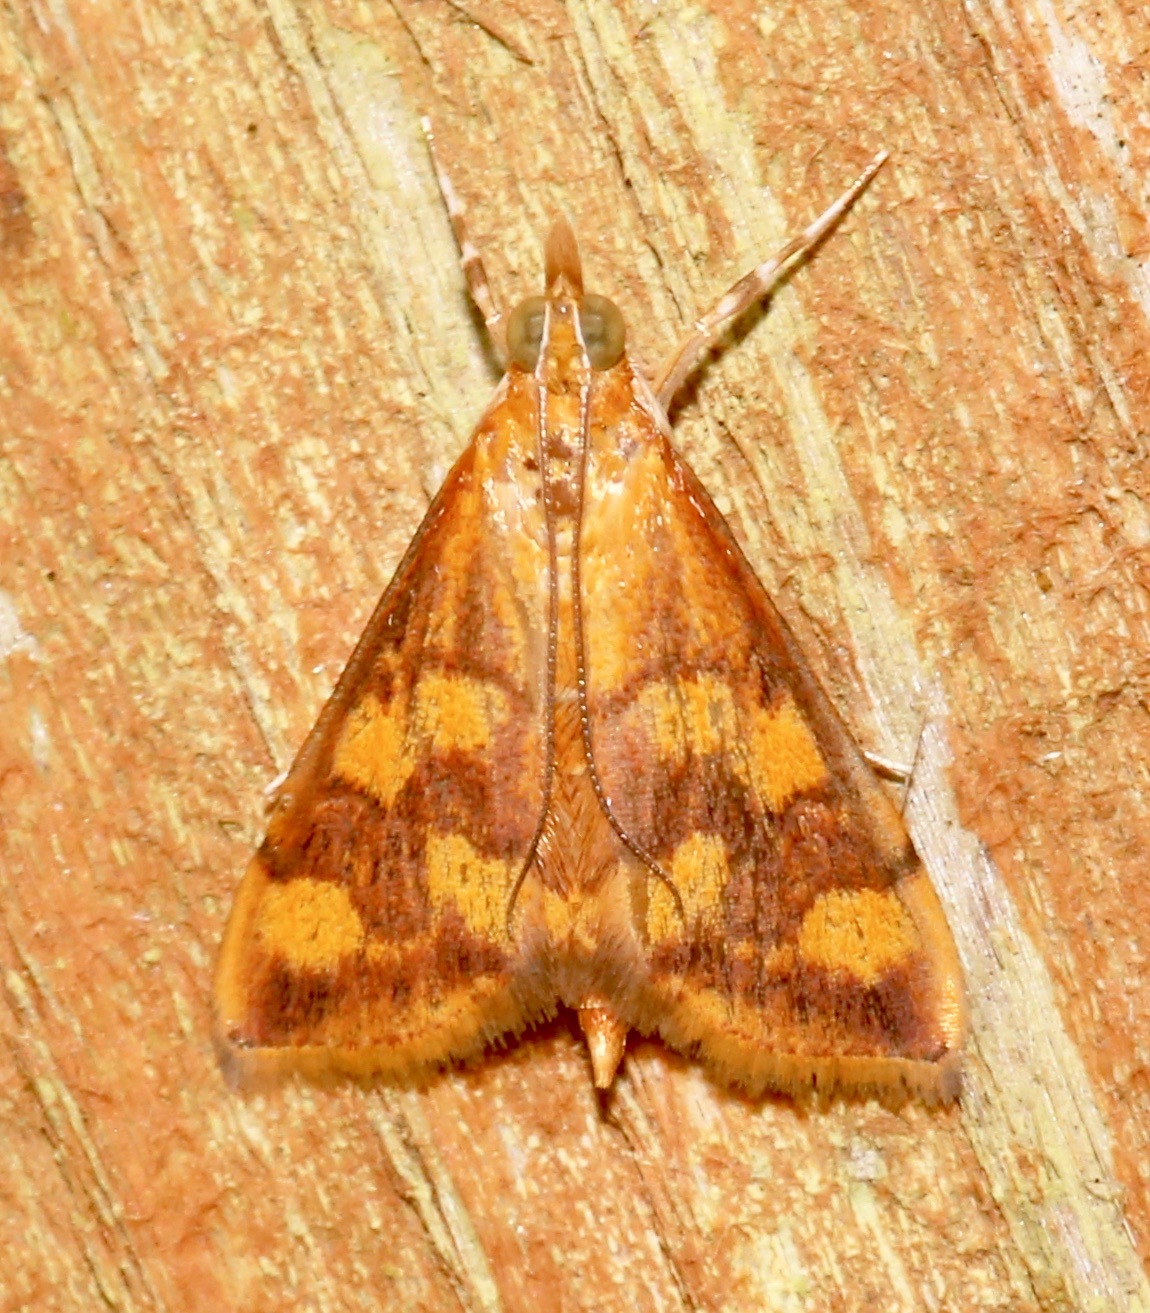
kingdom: Animalia
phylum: Arthropoda
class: Insecta
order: Lepidoptera
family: Crambidae
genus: Pyrausta
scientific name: Pyrausta phoenicealis
